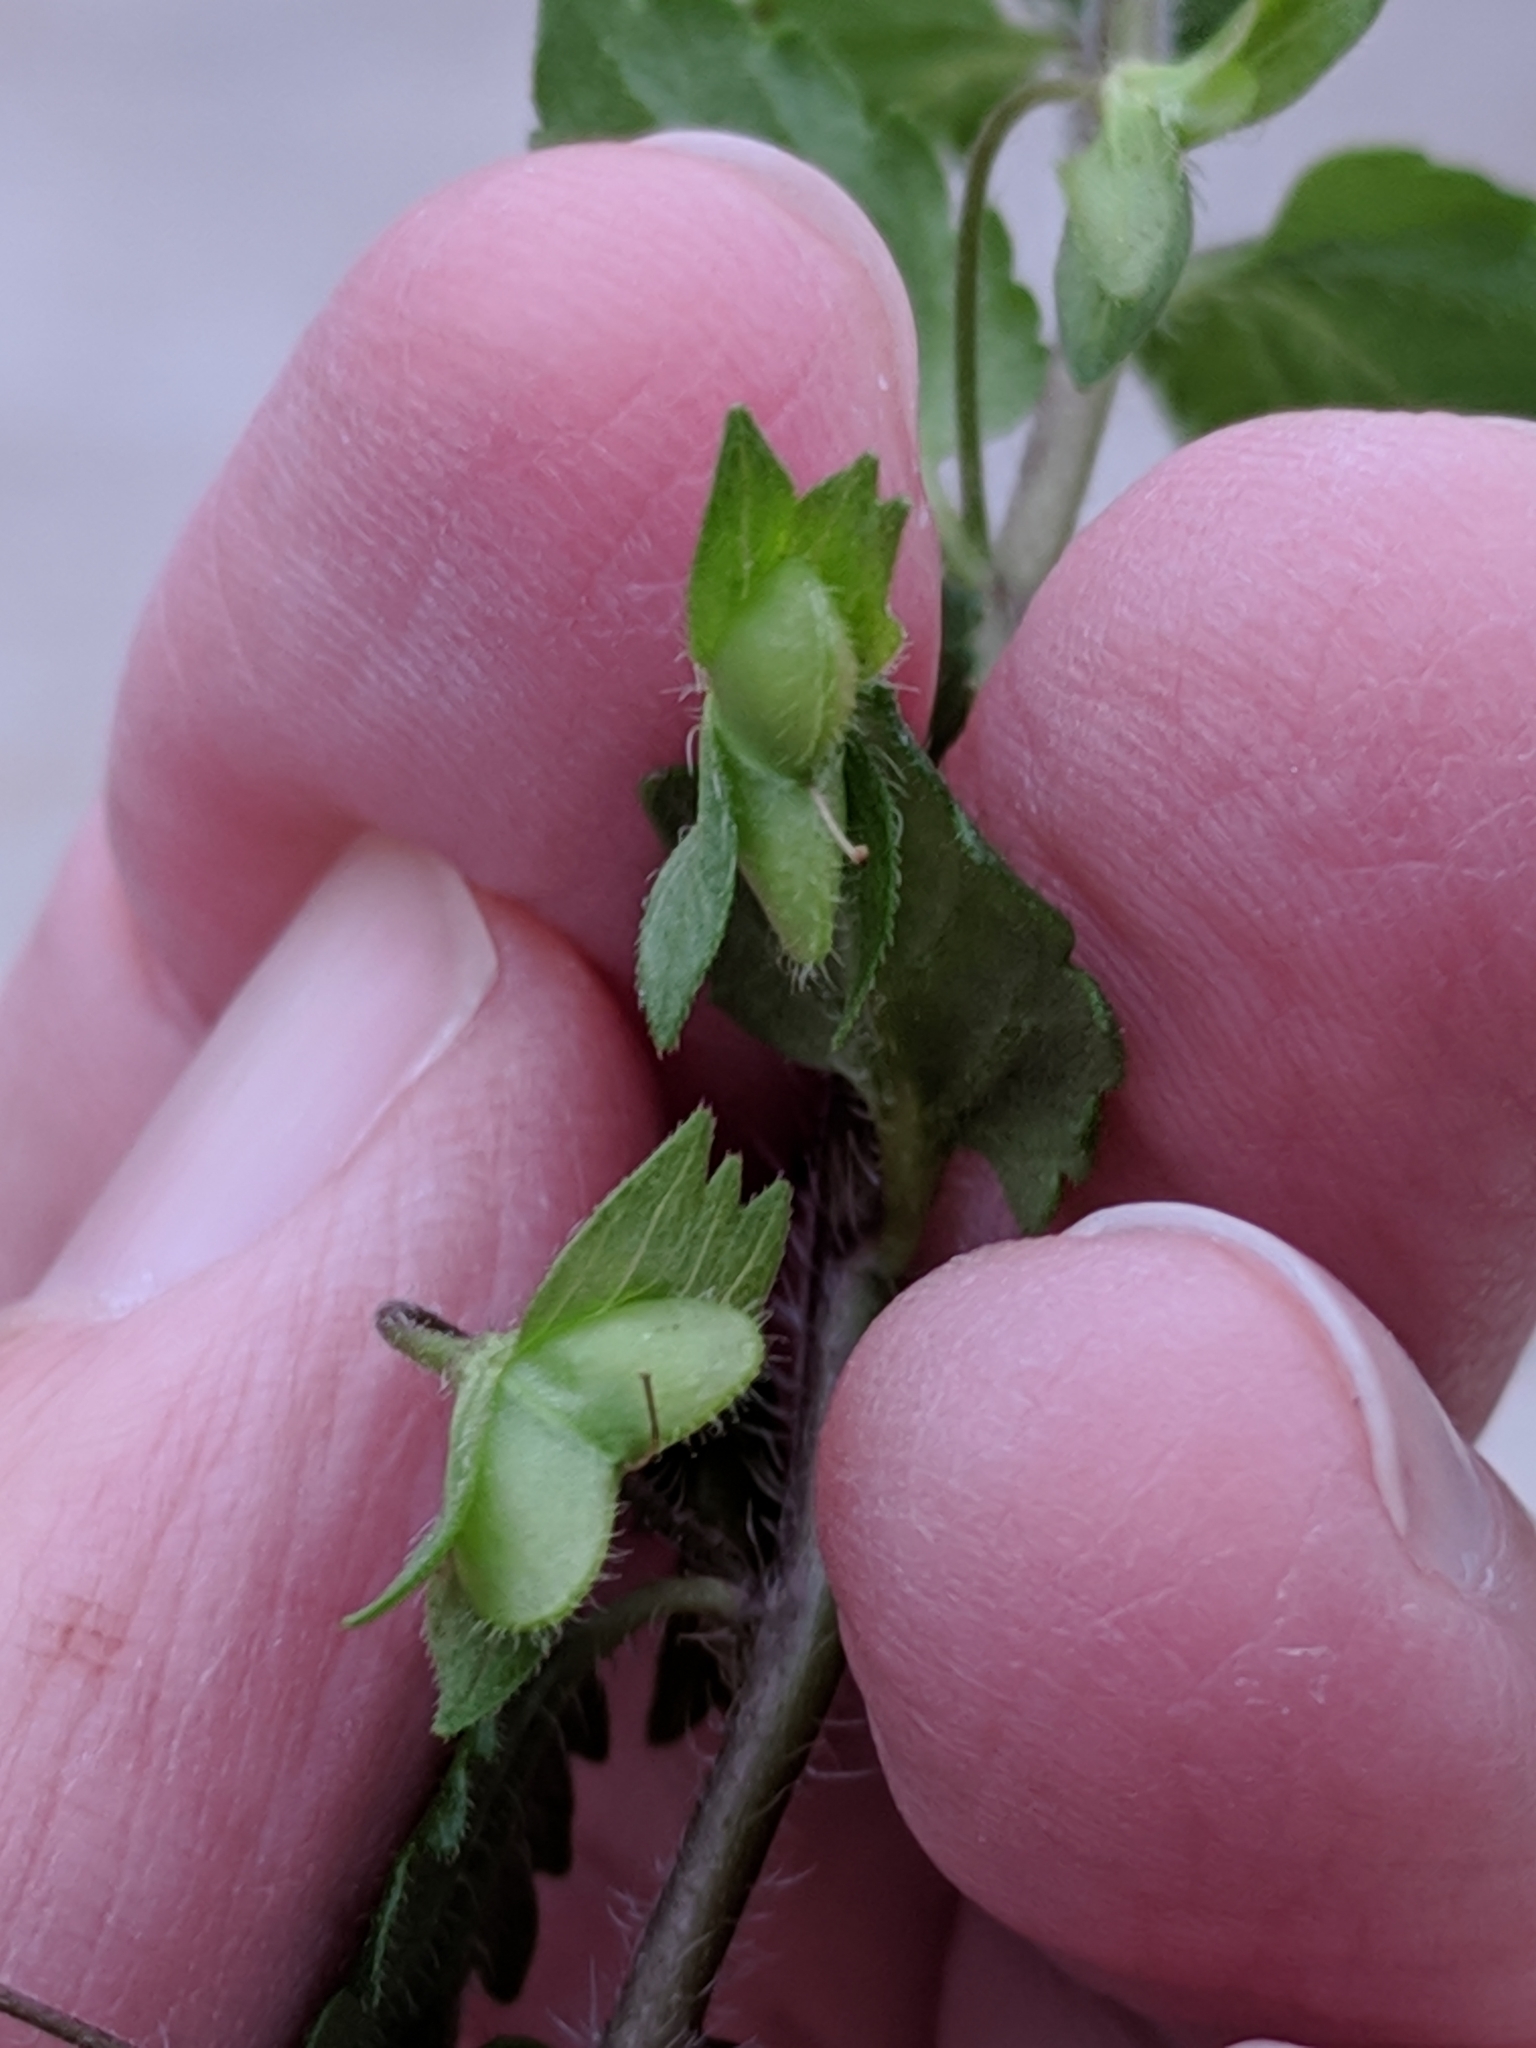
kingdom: Plantae
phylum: Tracheophyta
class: Magnoliopsida
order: Lamiales
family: Plantaginaceae
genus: Veronica
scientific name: Veronica persica
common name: Common field-speedwell
